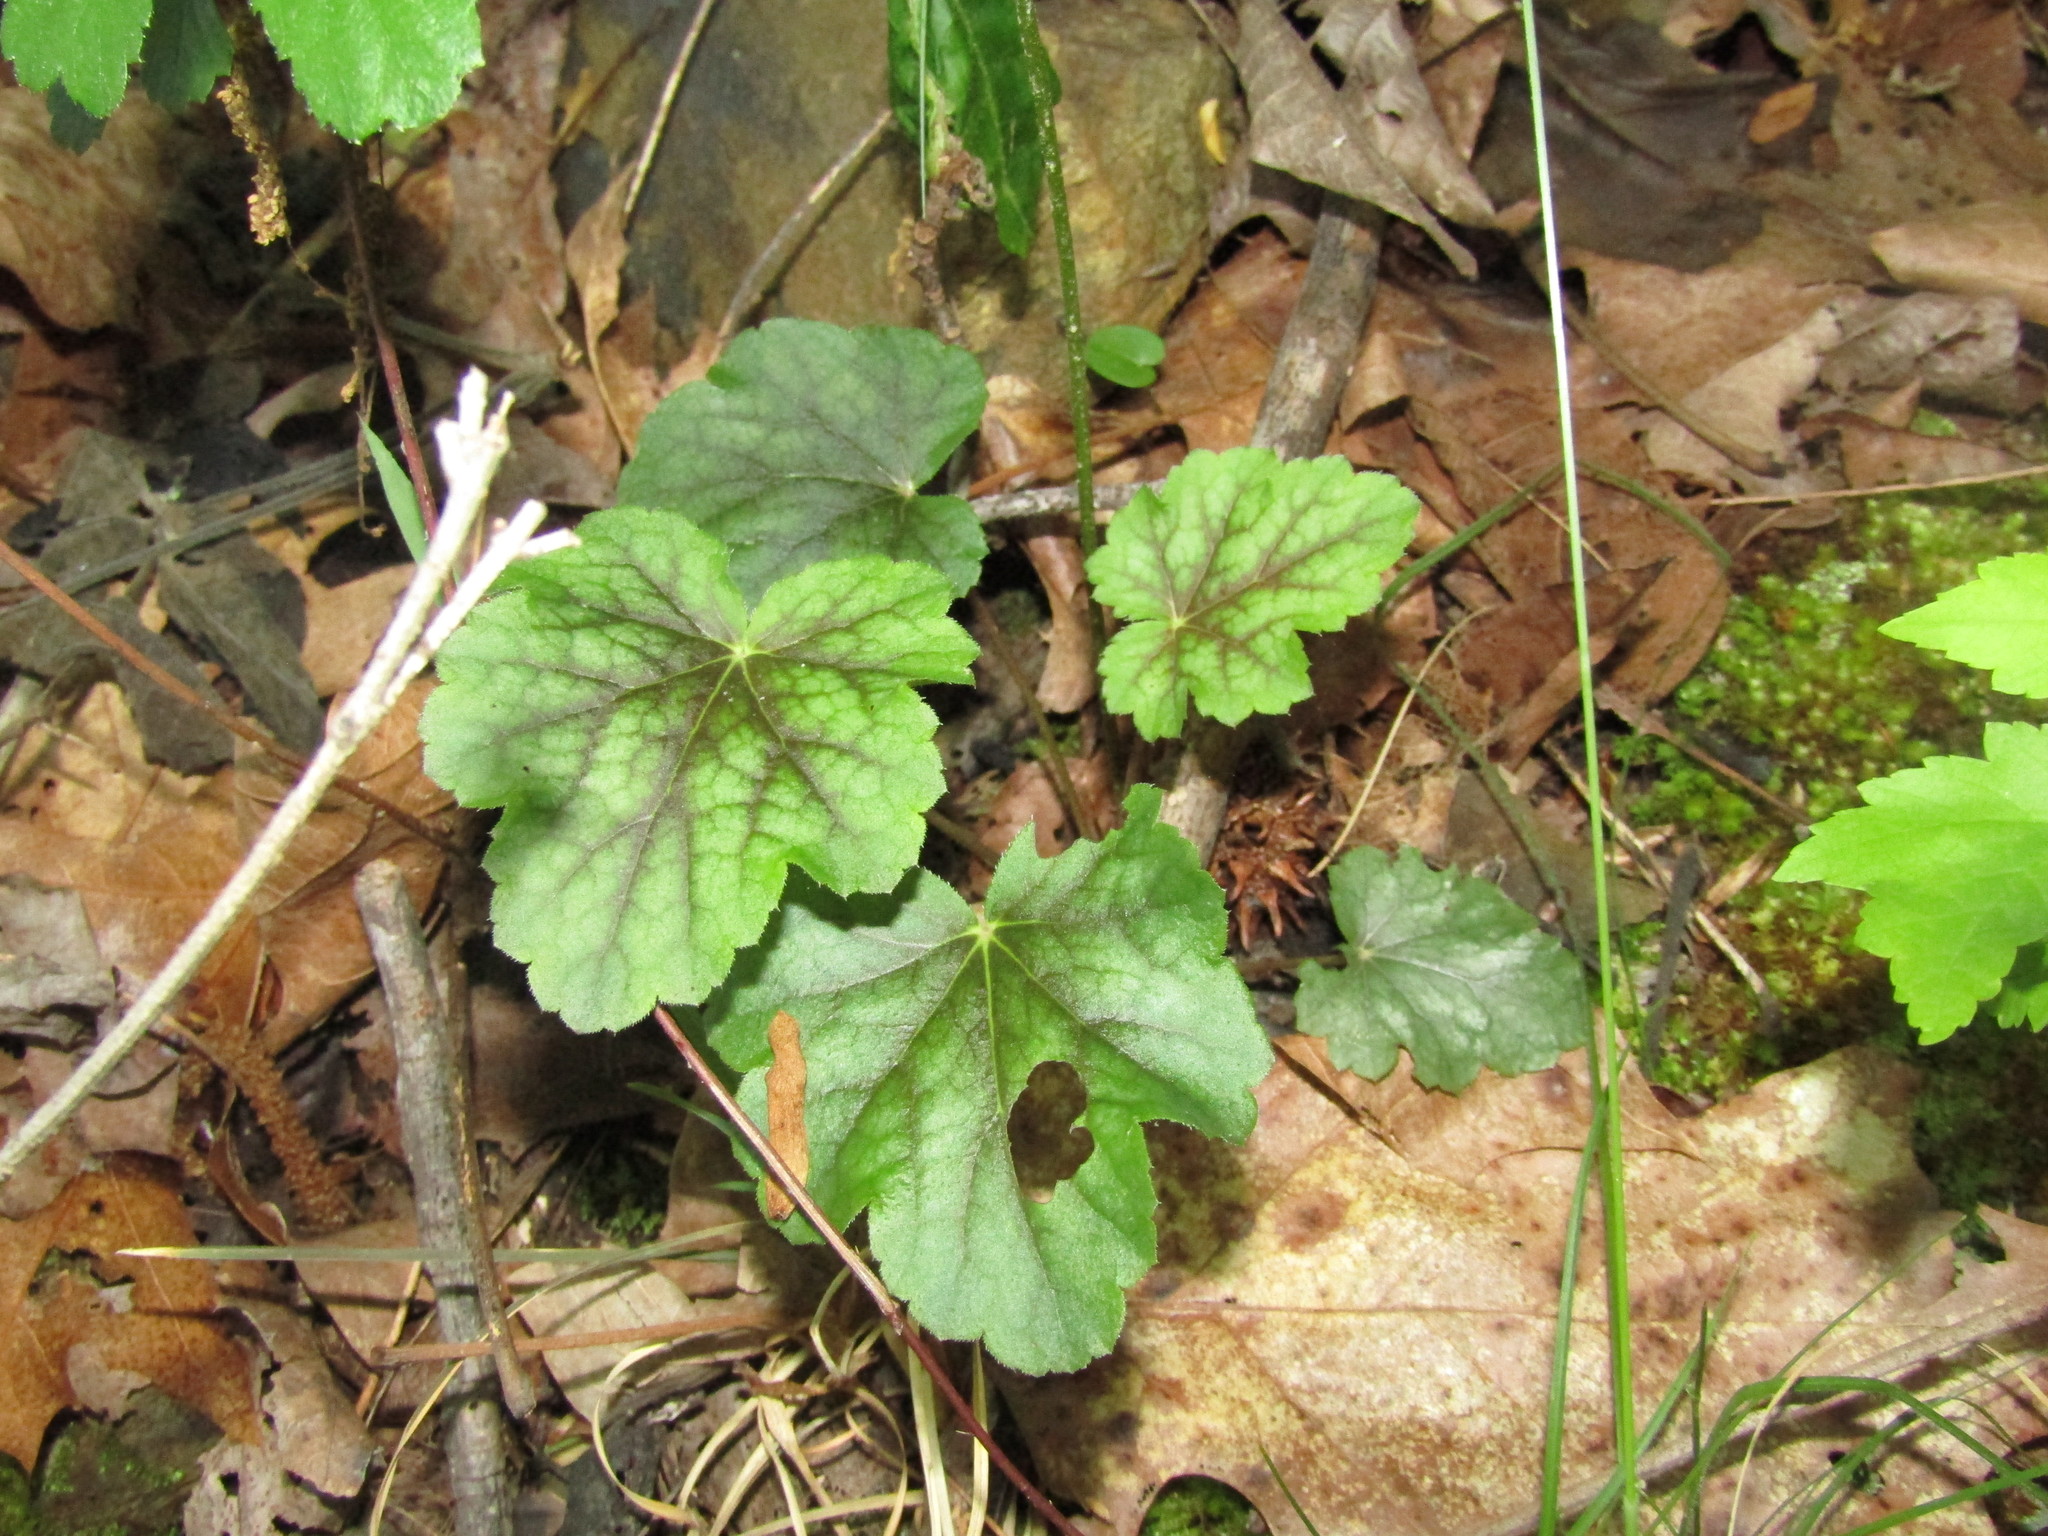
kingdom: Plantae
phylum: Tracheophyta
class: Magnoliopsida
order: Saxifragales
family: Saxifragaceae
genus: Heuchera
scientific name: Heuchera caroliniana
